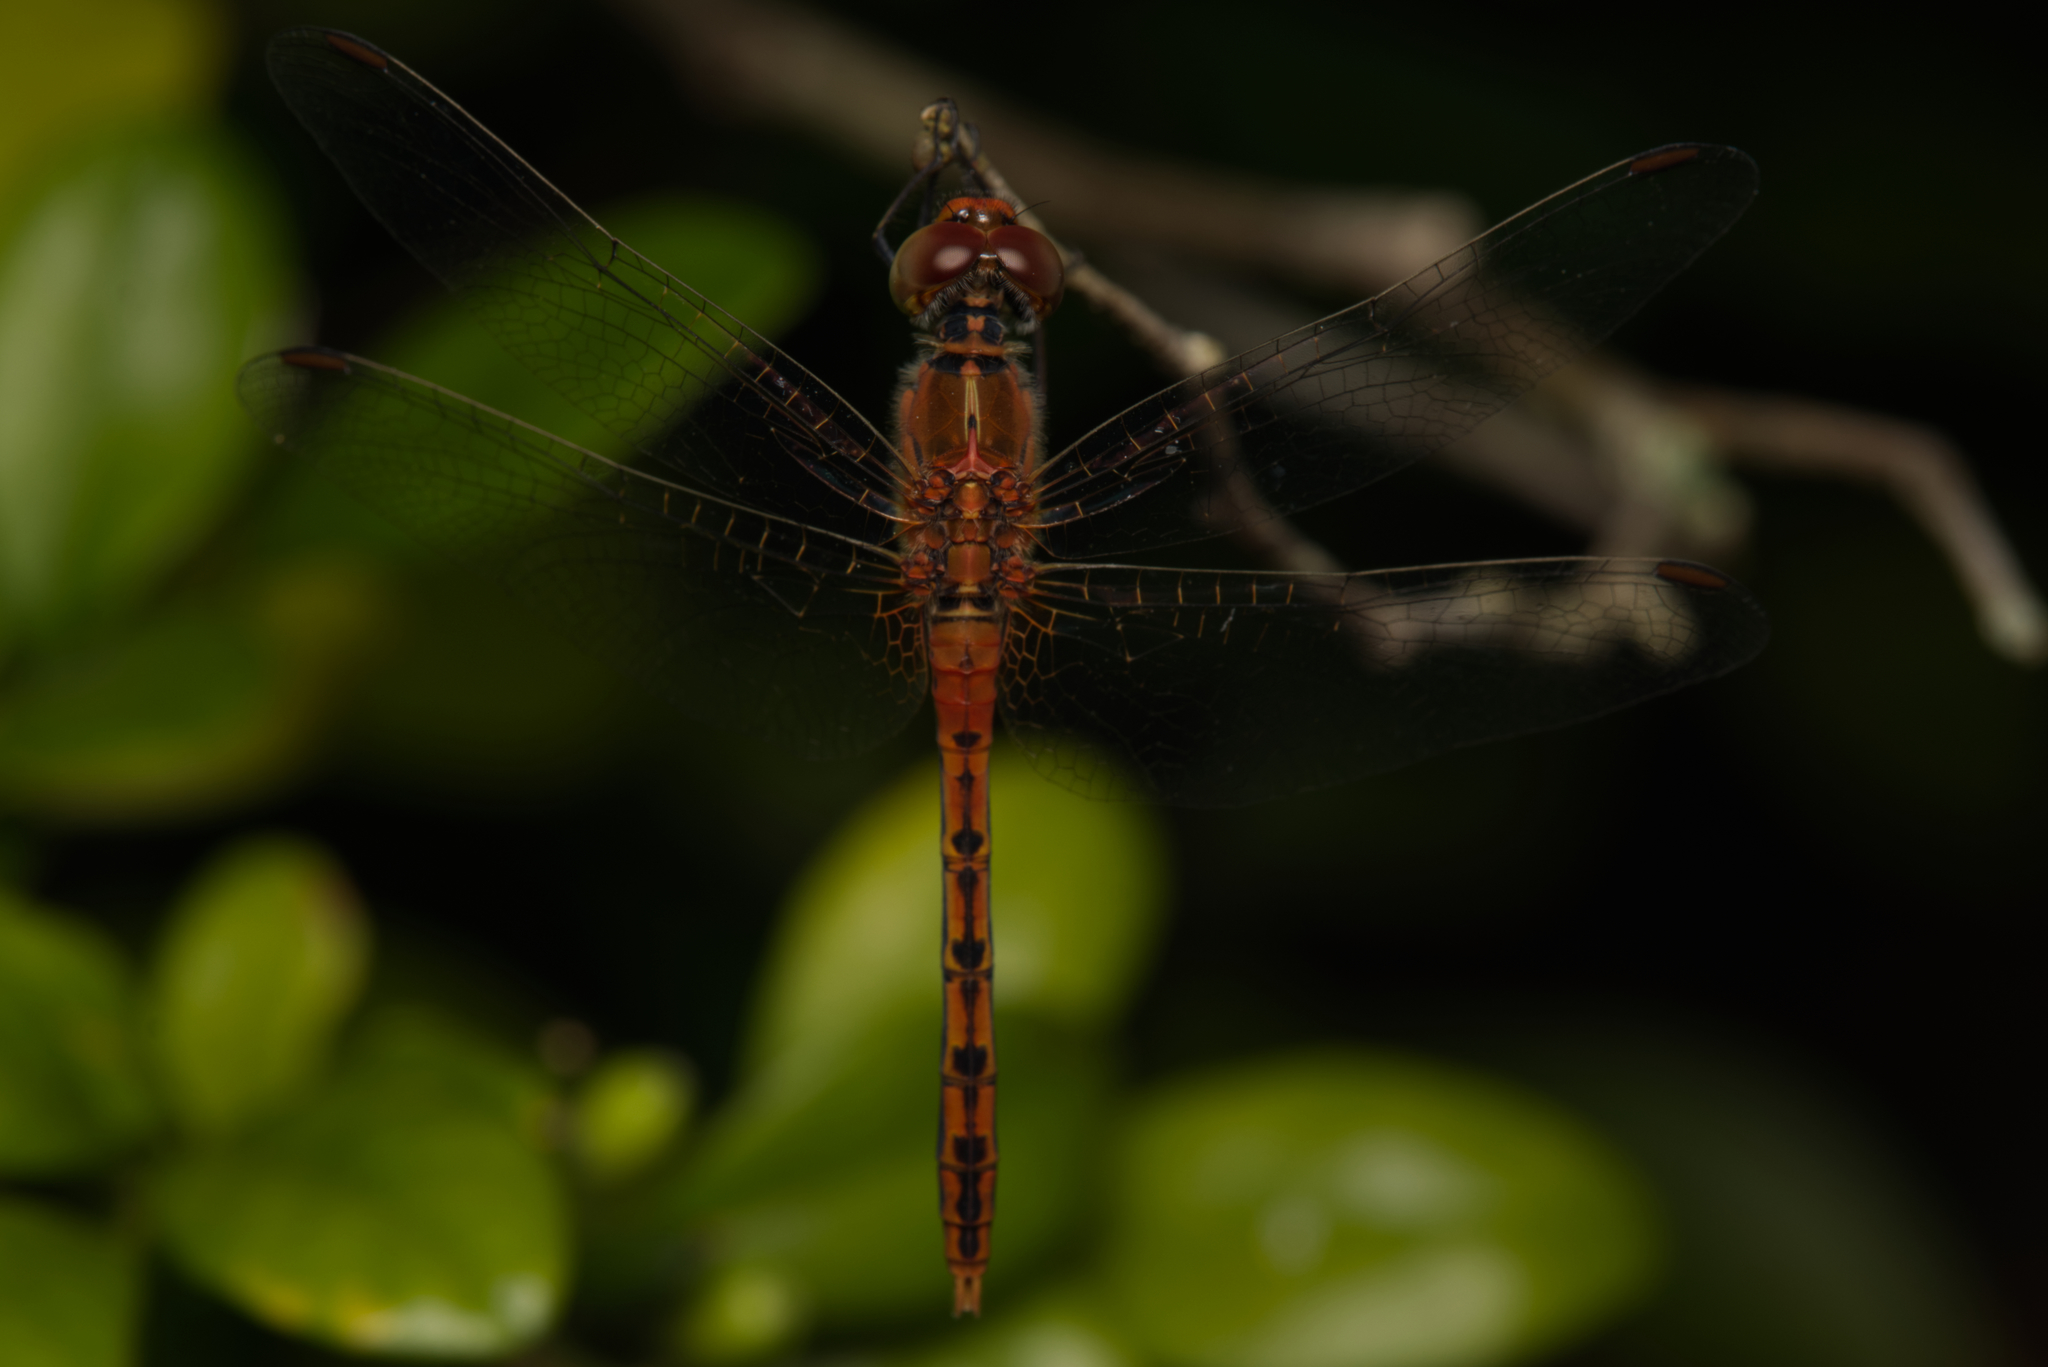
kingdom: Animalia
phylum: Arthropoda
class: Insecta
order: Odonata
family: Libellulidae
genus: Diplacodes
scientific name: Diplacodes bipunctata
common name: Red percher dragonfly
